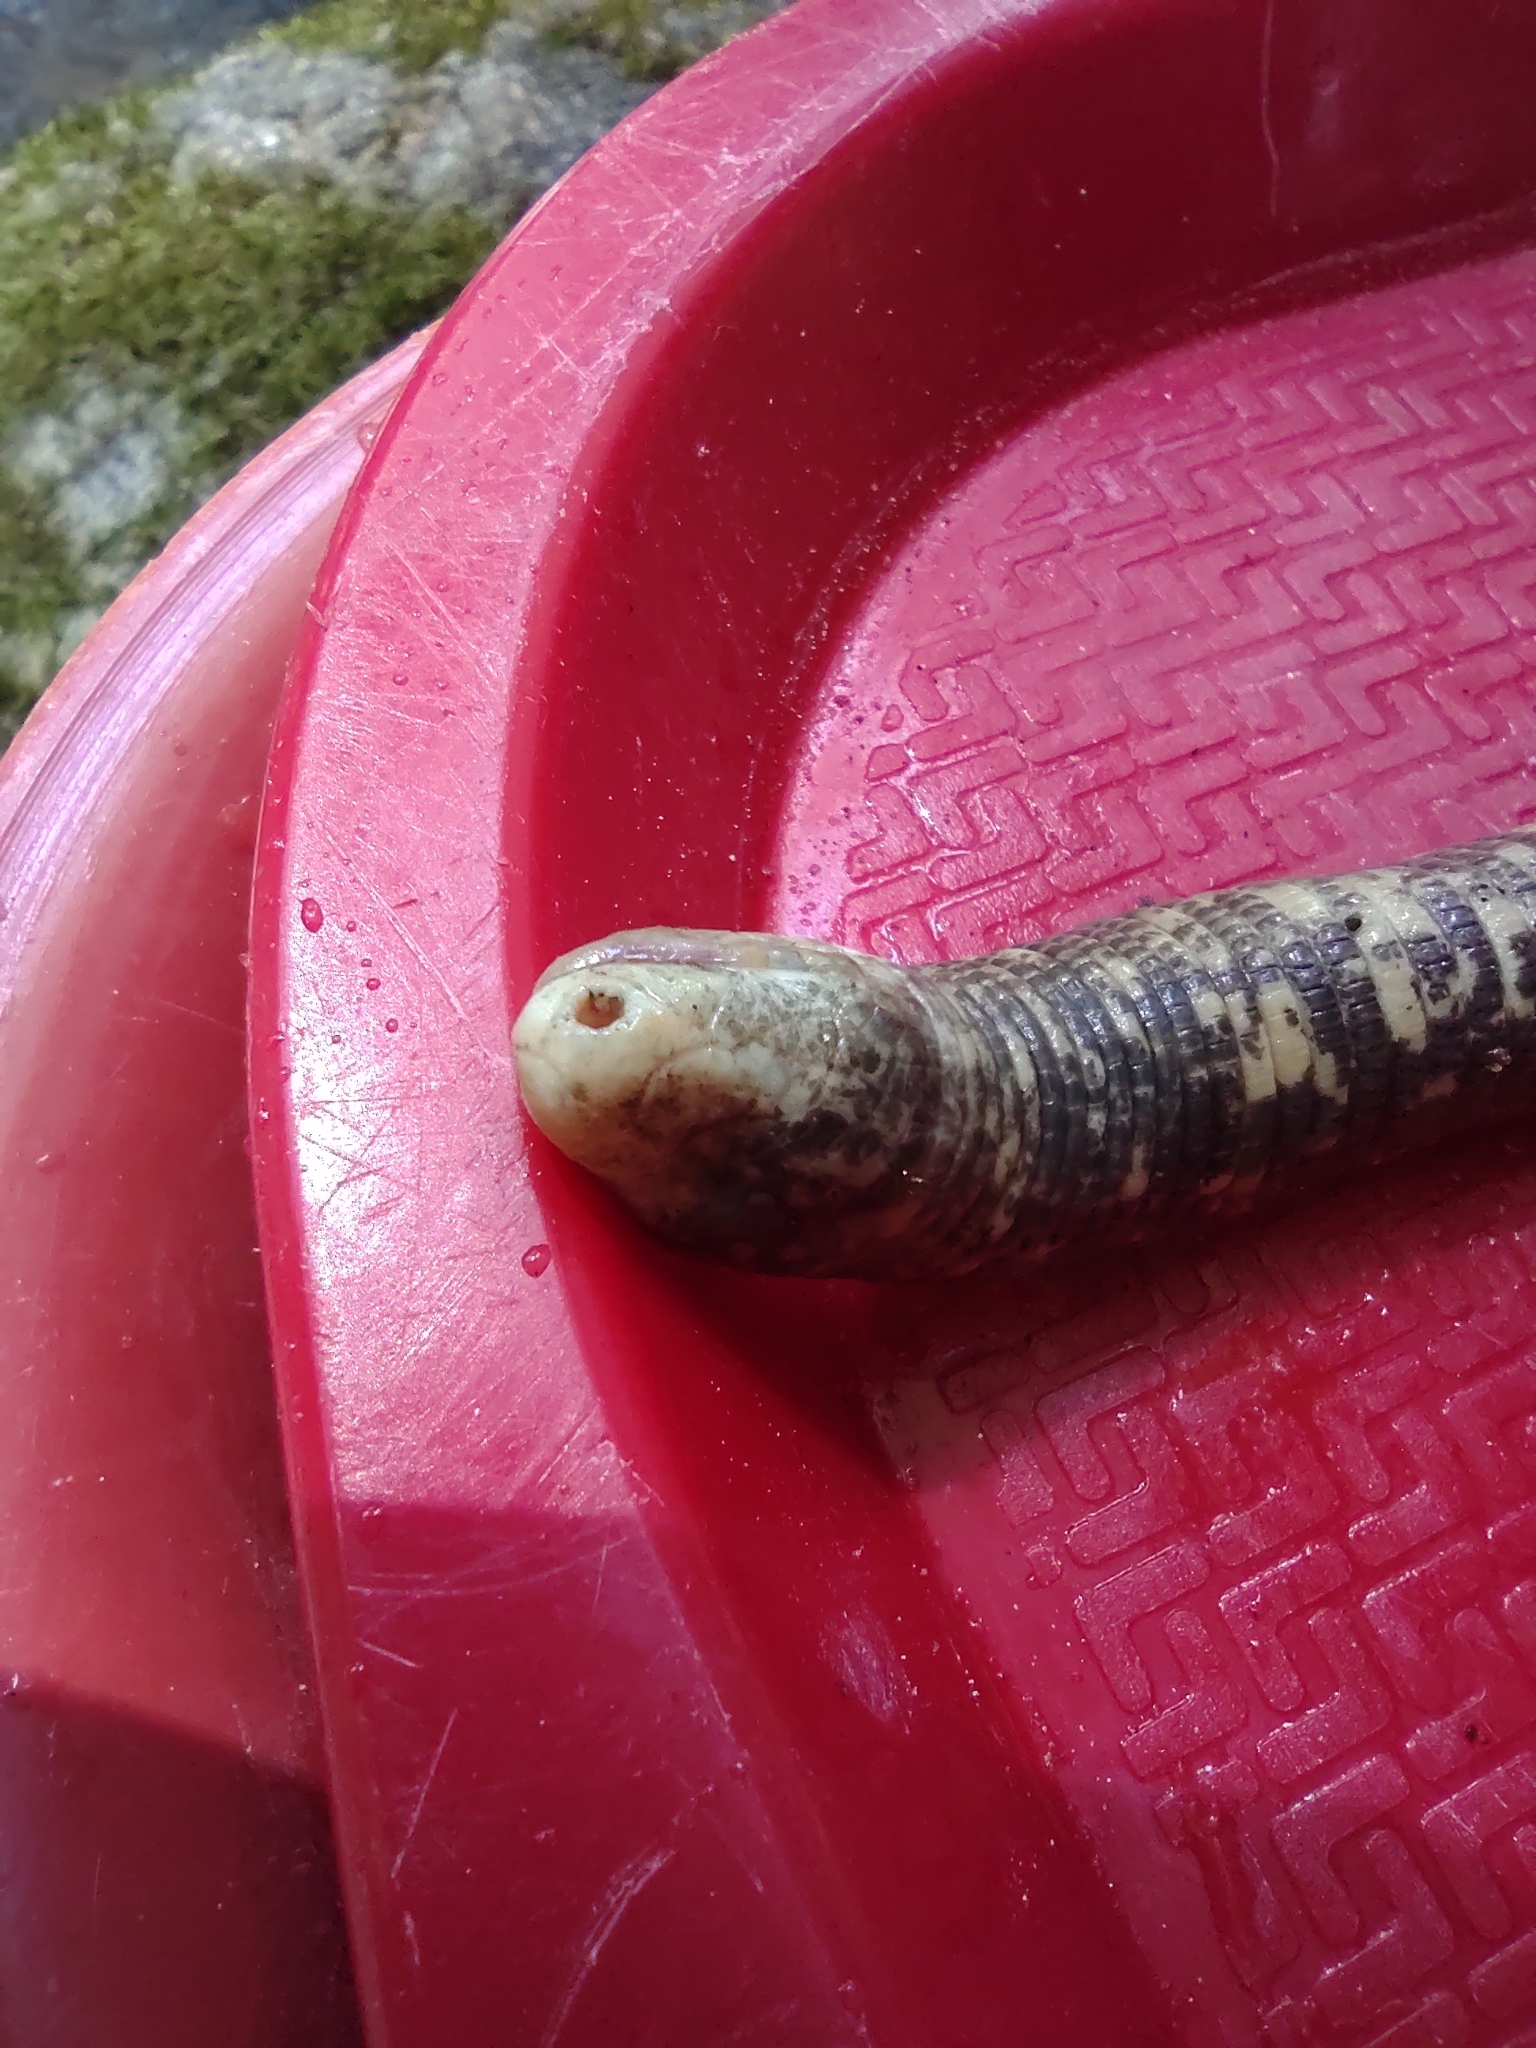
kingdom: Animalia
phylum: Chordata
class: Squamata
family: Amphisbaenidae
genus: Amphisbaena
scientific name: Amphisbaena fuliginosa
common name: Speckled worm lizard
